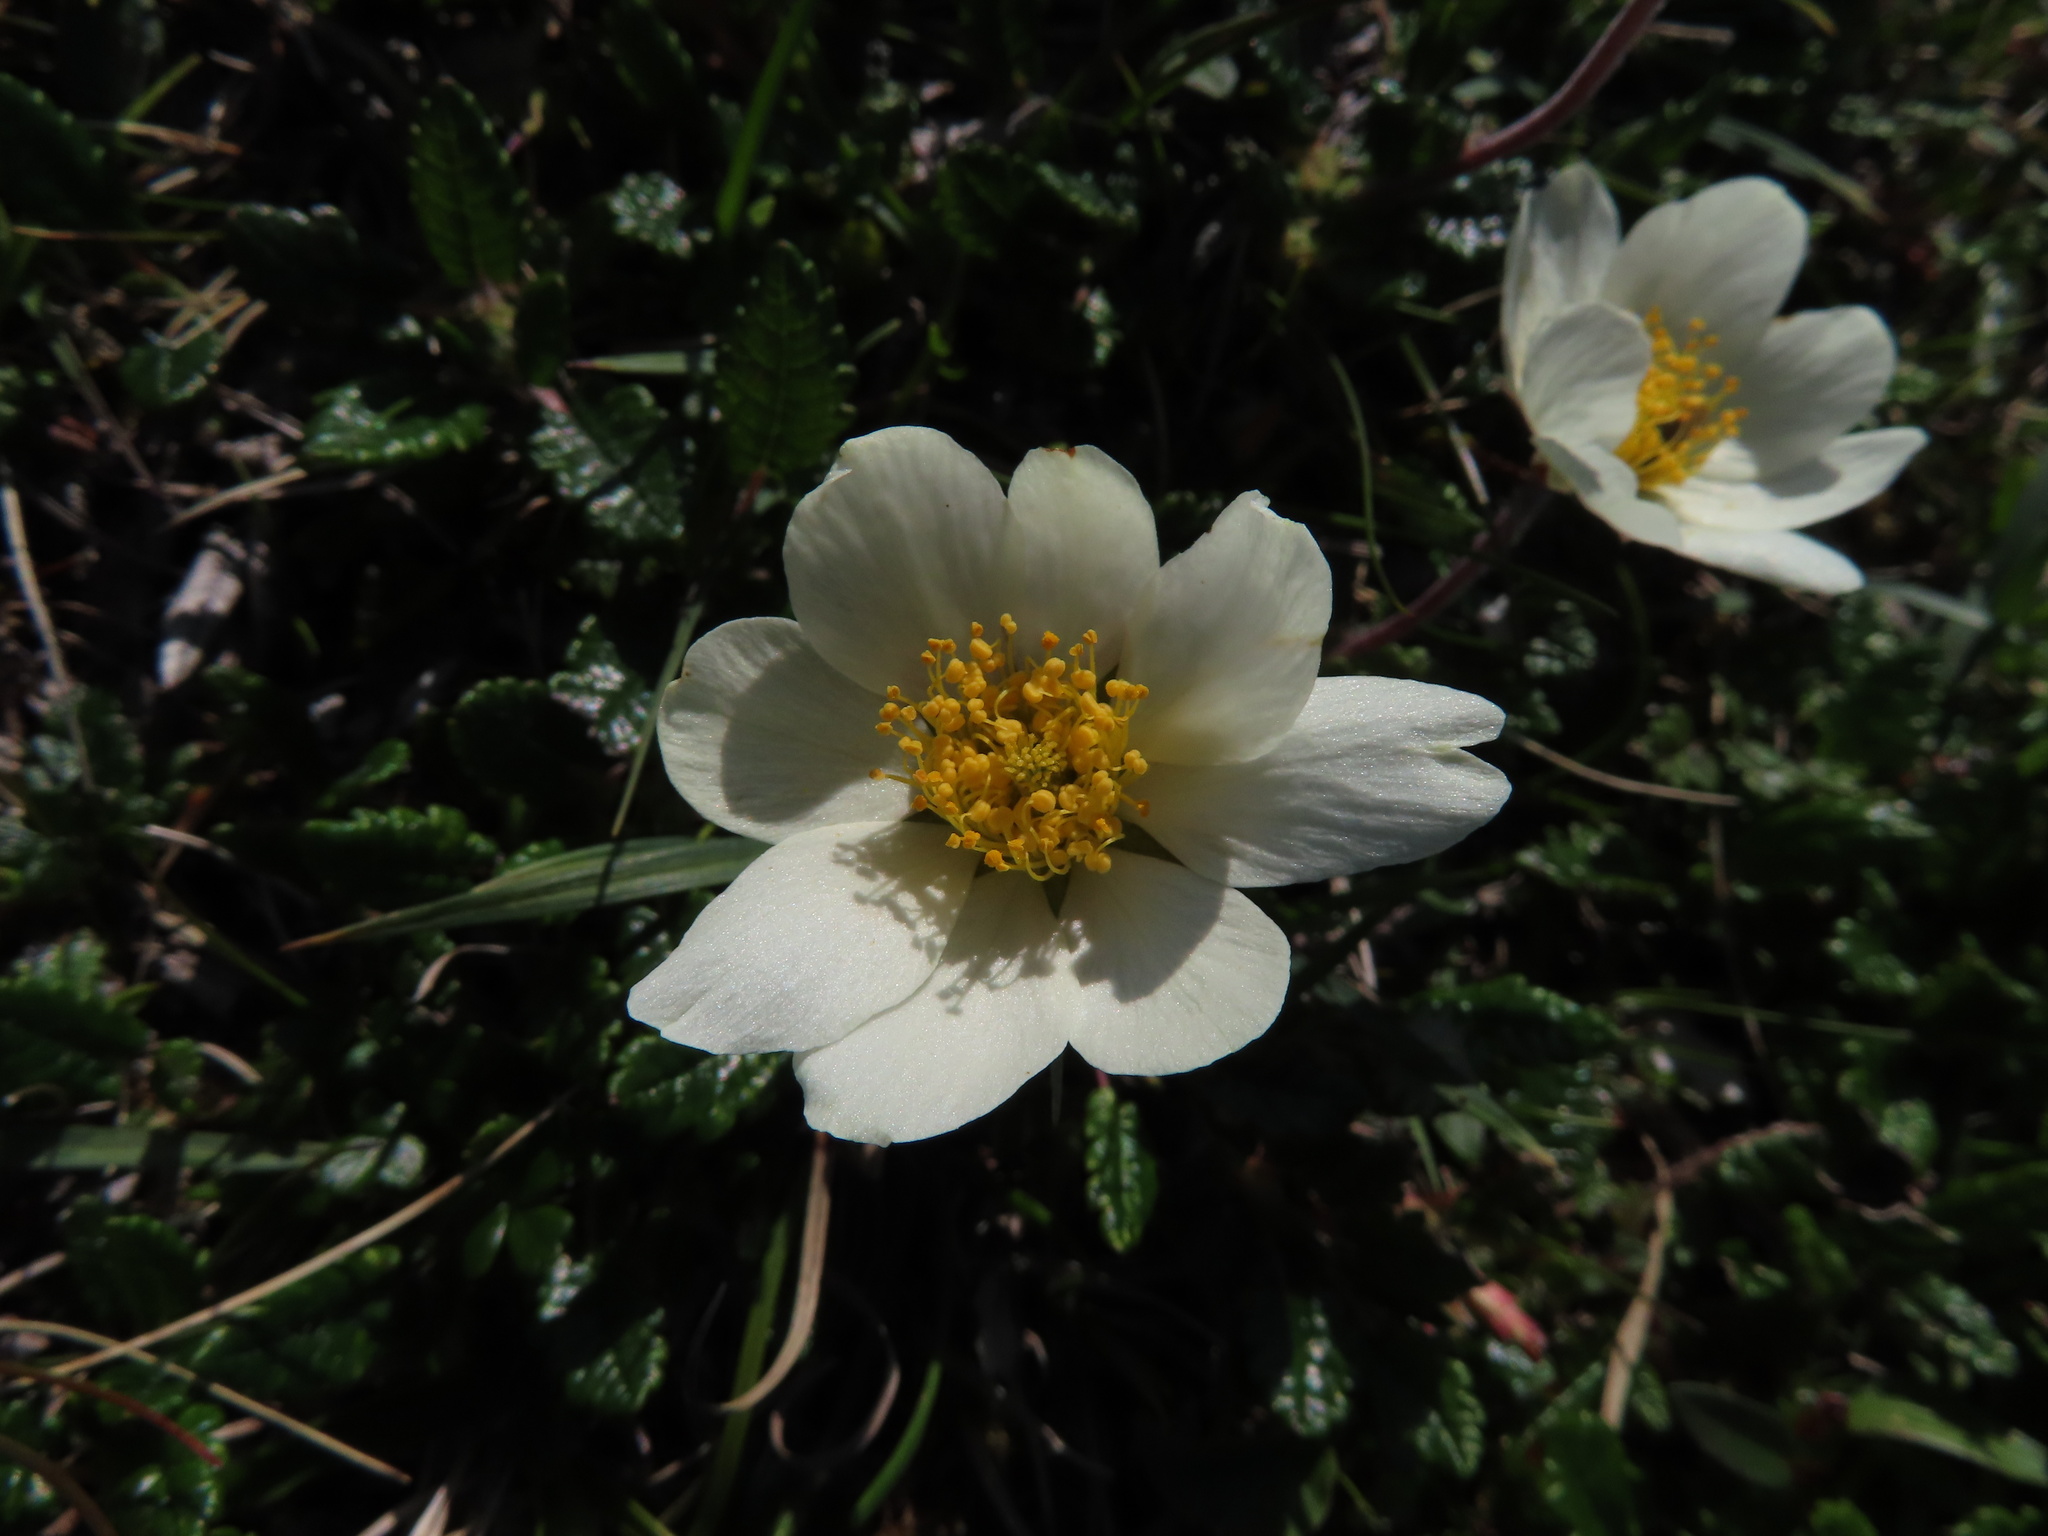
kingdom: Plantae
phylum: Tracheophyta
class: Magnoliopsida
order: Rosales
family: Rosaceae
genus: Dryas
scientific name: Dryas octopetala
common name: Eight-petal mountain-avens
